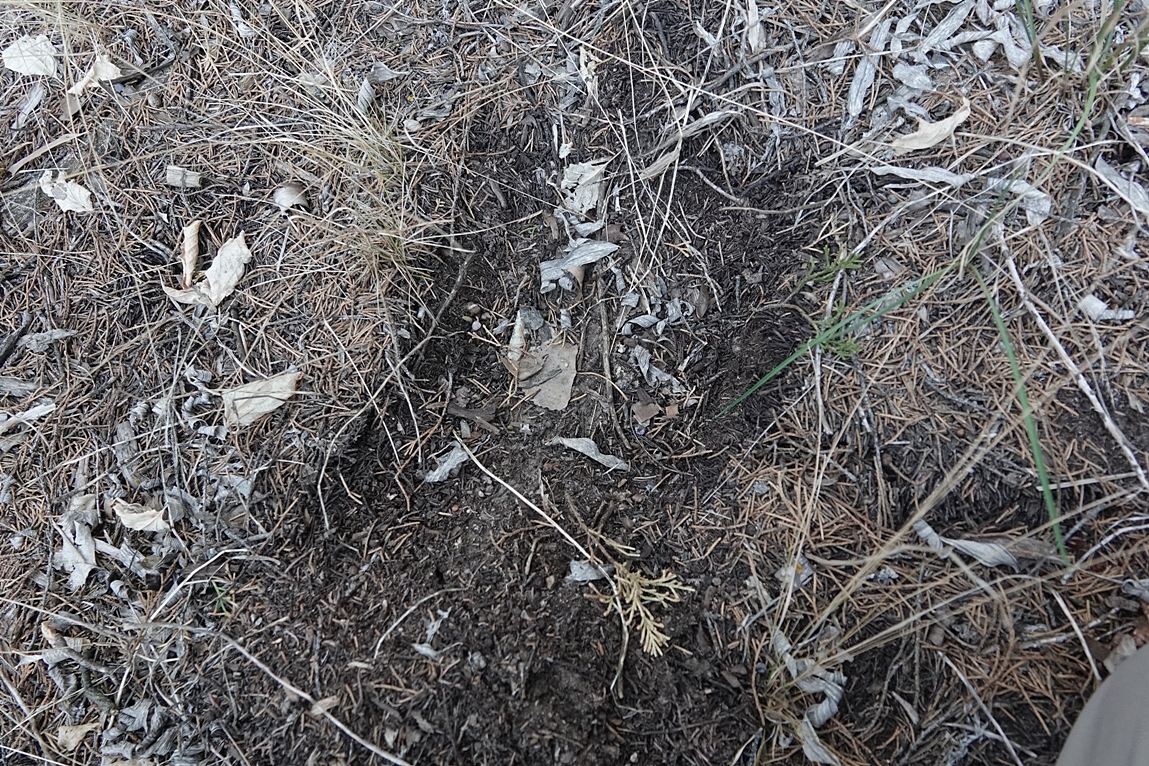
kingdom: Animalia
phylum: Chordata
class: Mammalia
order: Carnivora
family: Felidae
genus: Puma
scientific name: Puma concolor
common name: Puma
